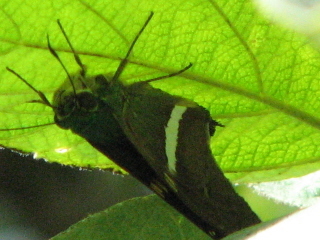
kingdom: Animalia
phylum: Arthropoda
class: Insecta
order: Lepidoptera
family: Hesperiidae
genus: Aguna
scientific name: Aguna claxon
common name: Emerald aguna
